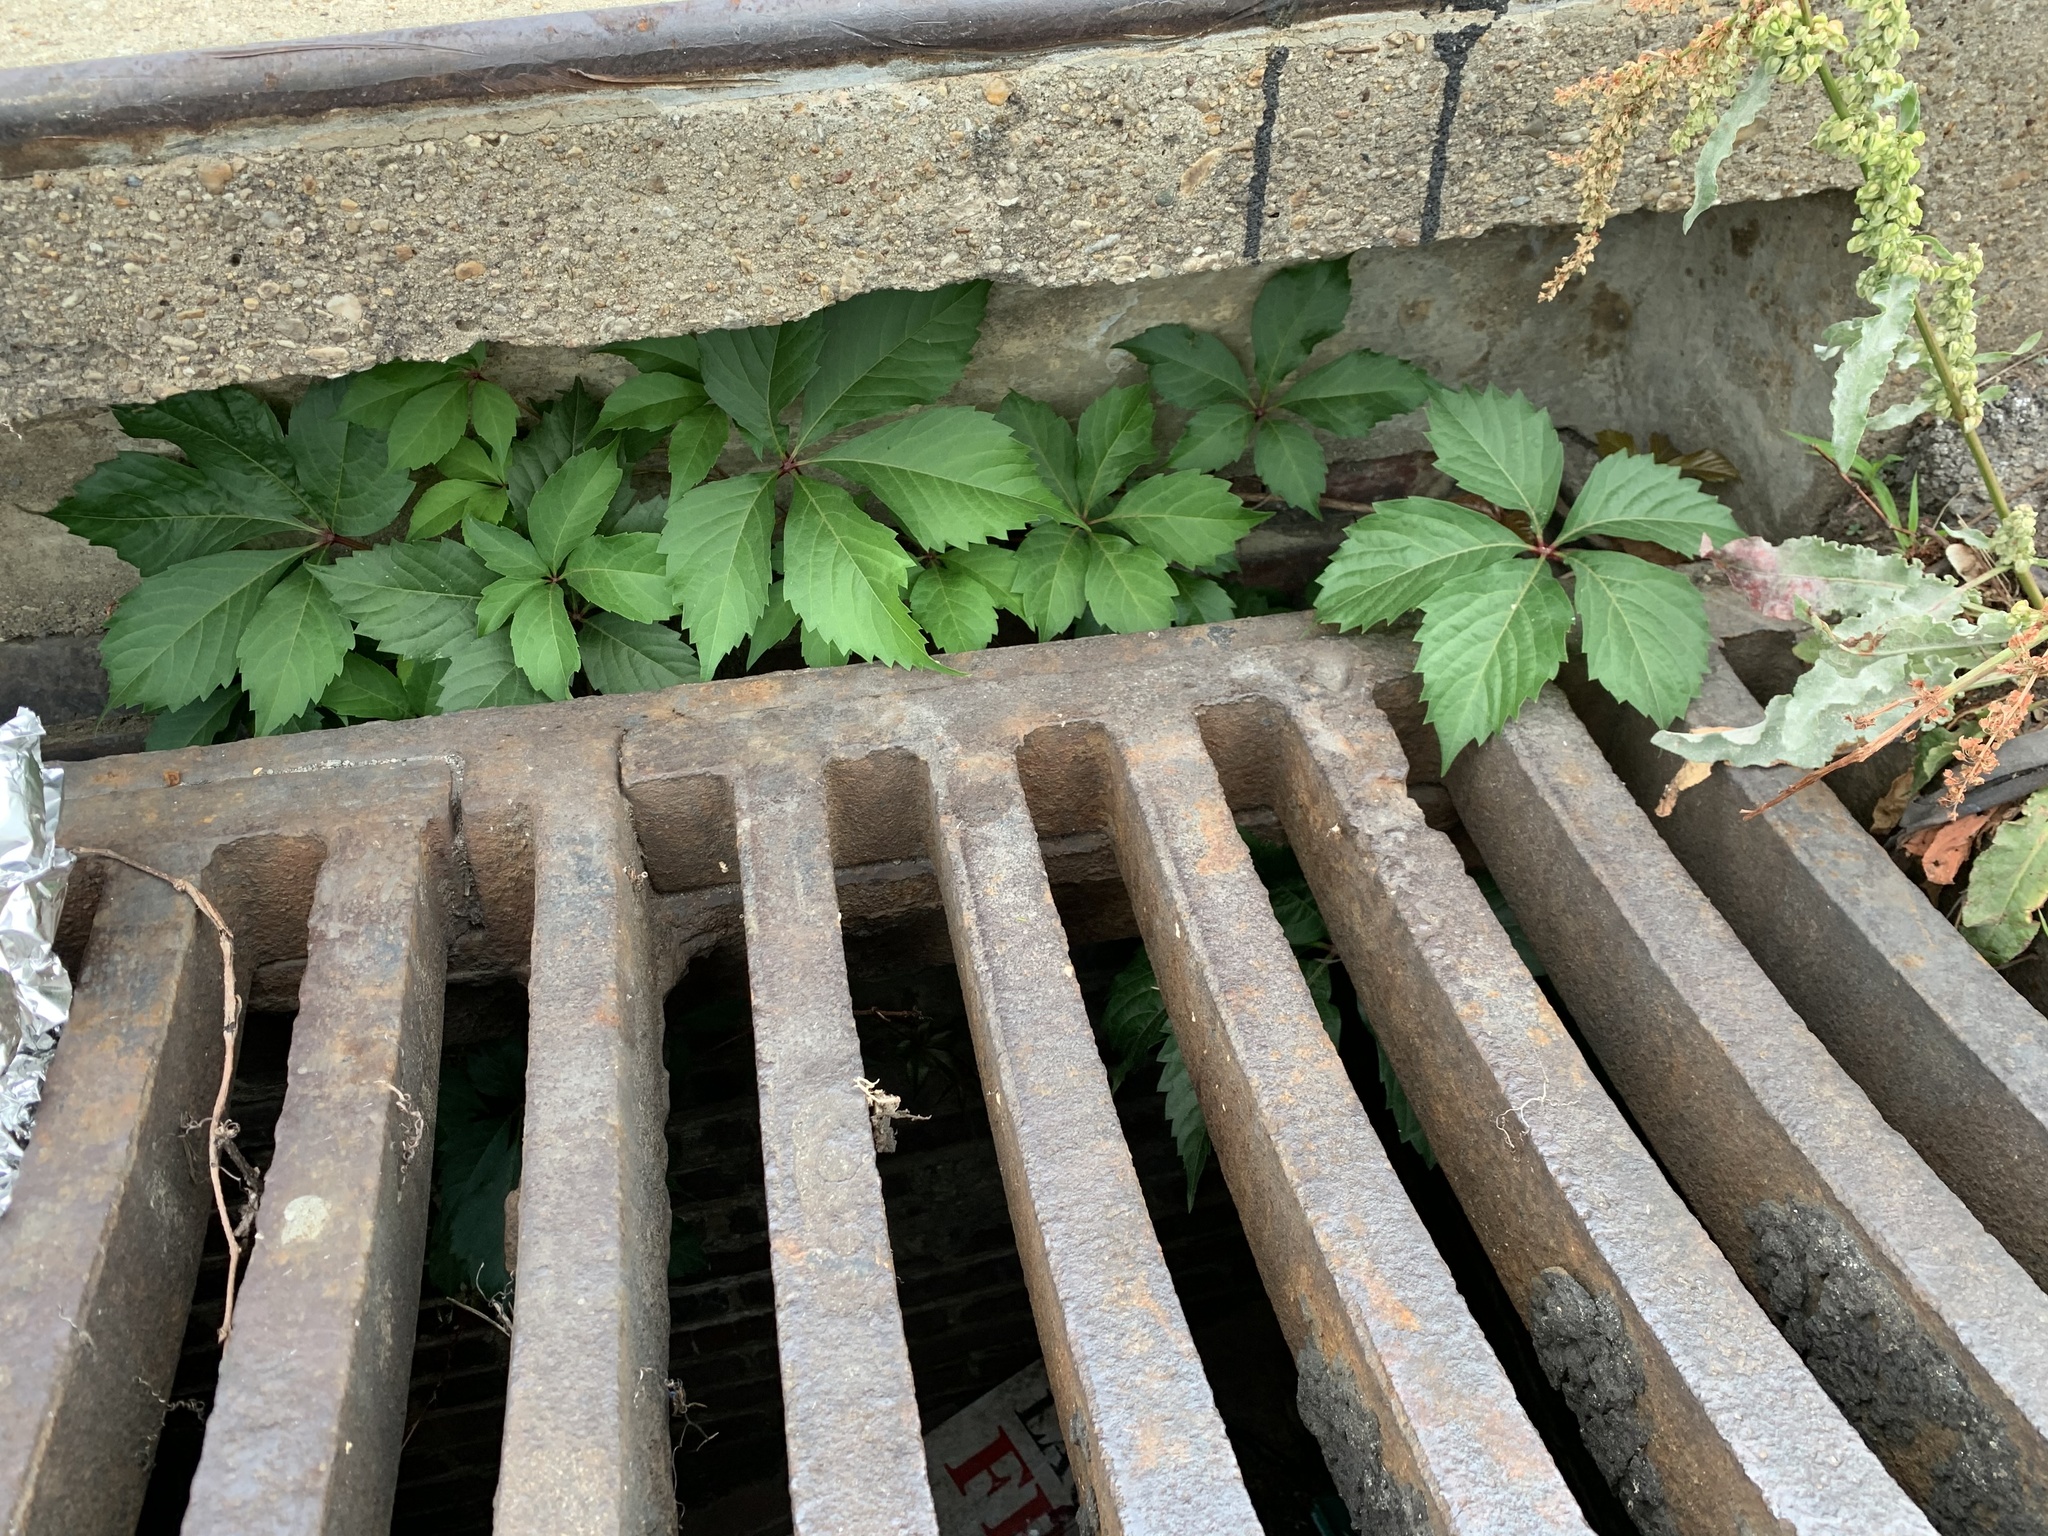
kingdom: Plantae
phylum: Tracheophyta
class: Magnoliopsida
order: Vitales
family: Vitaceae
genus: Parthenocissus
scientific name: Parthenocissus quinquefolia
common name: Virginia-creeper
